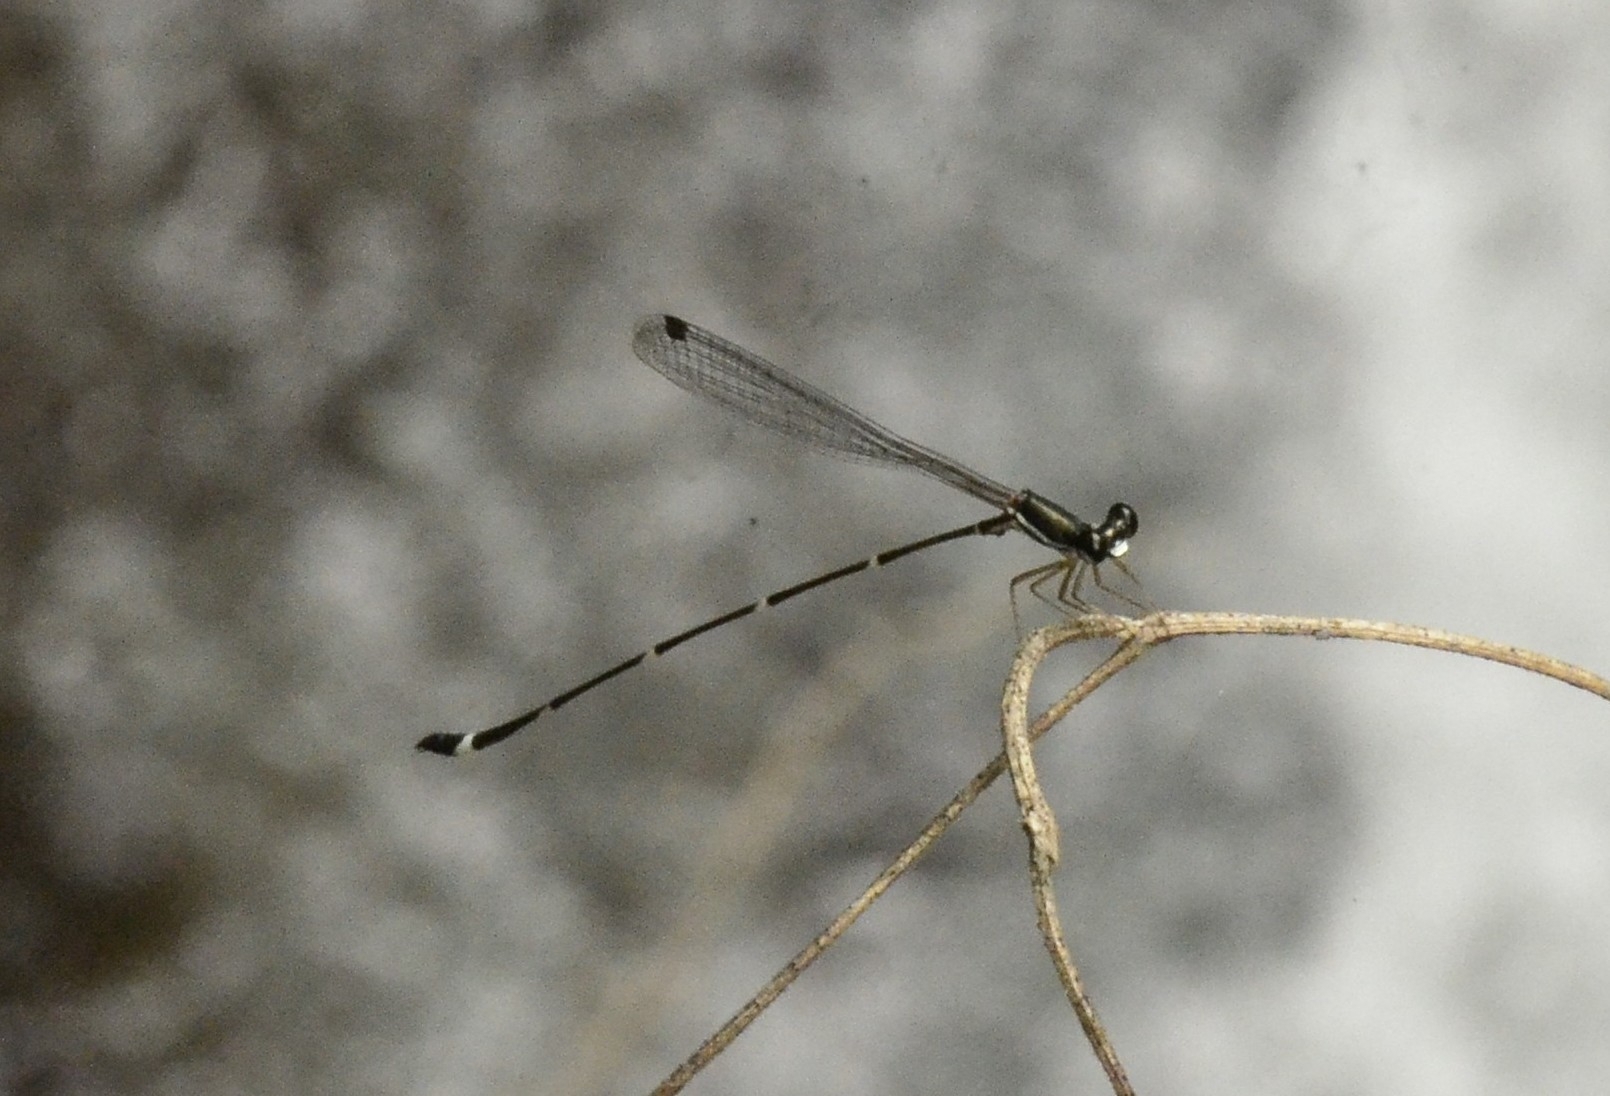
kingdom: Animalia
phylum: Arthropoda
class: Insecta
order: Odonata
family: Platystictidae
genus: Protosticta
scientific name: Protosticta gravelyi
